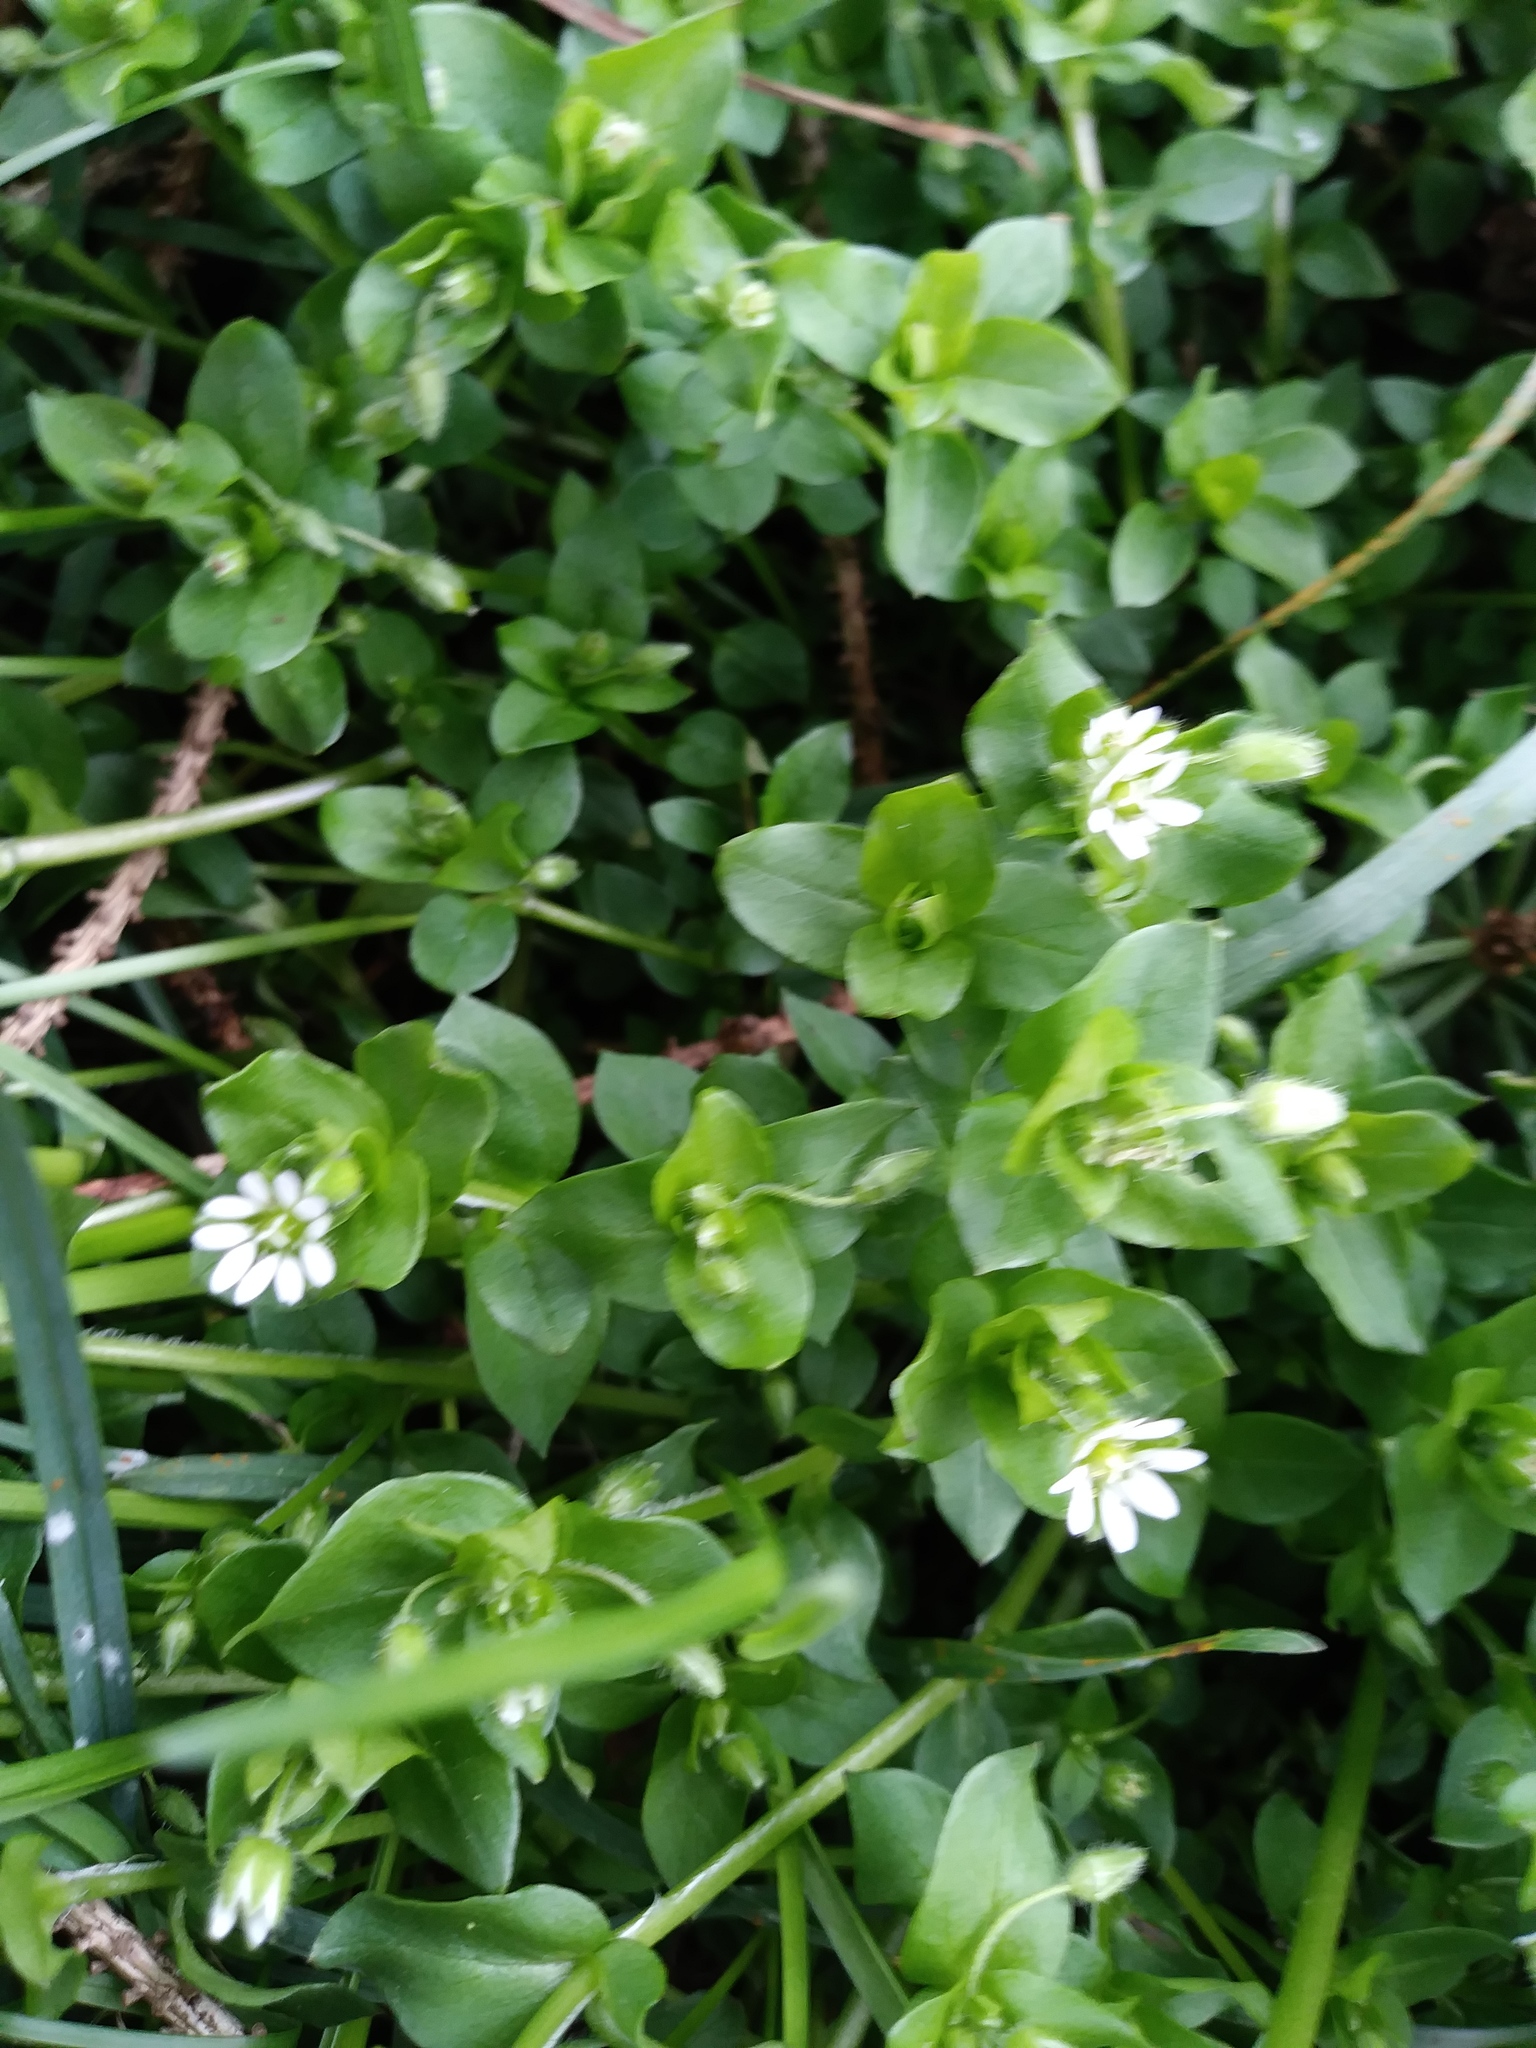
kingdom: Plantae
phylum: Tracheophyta
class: Magnoliopsida
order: Caryophyllales
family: Caryophyllaceae
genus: Stellaria
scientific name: Stellaria media
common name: Common chickweed
